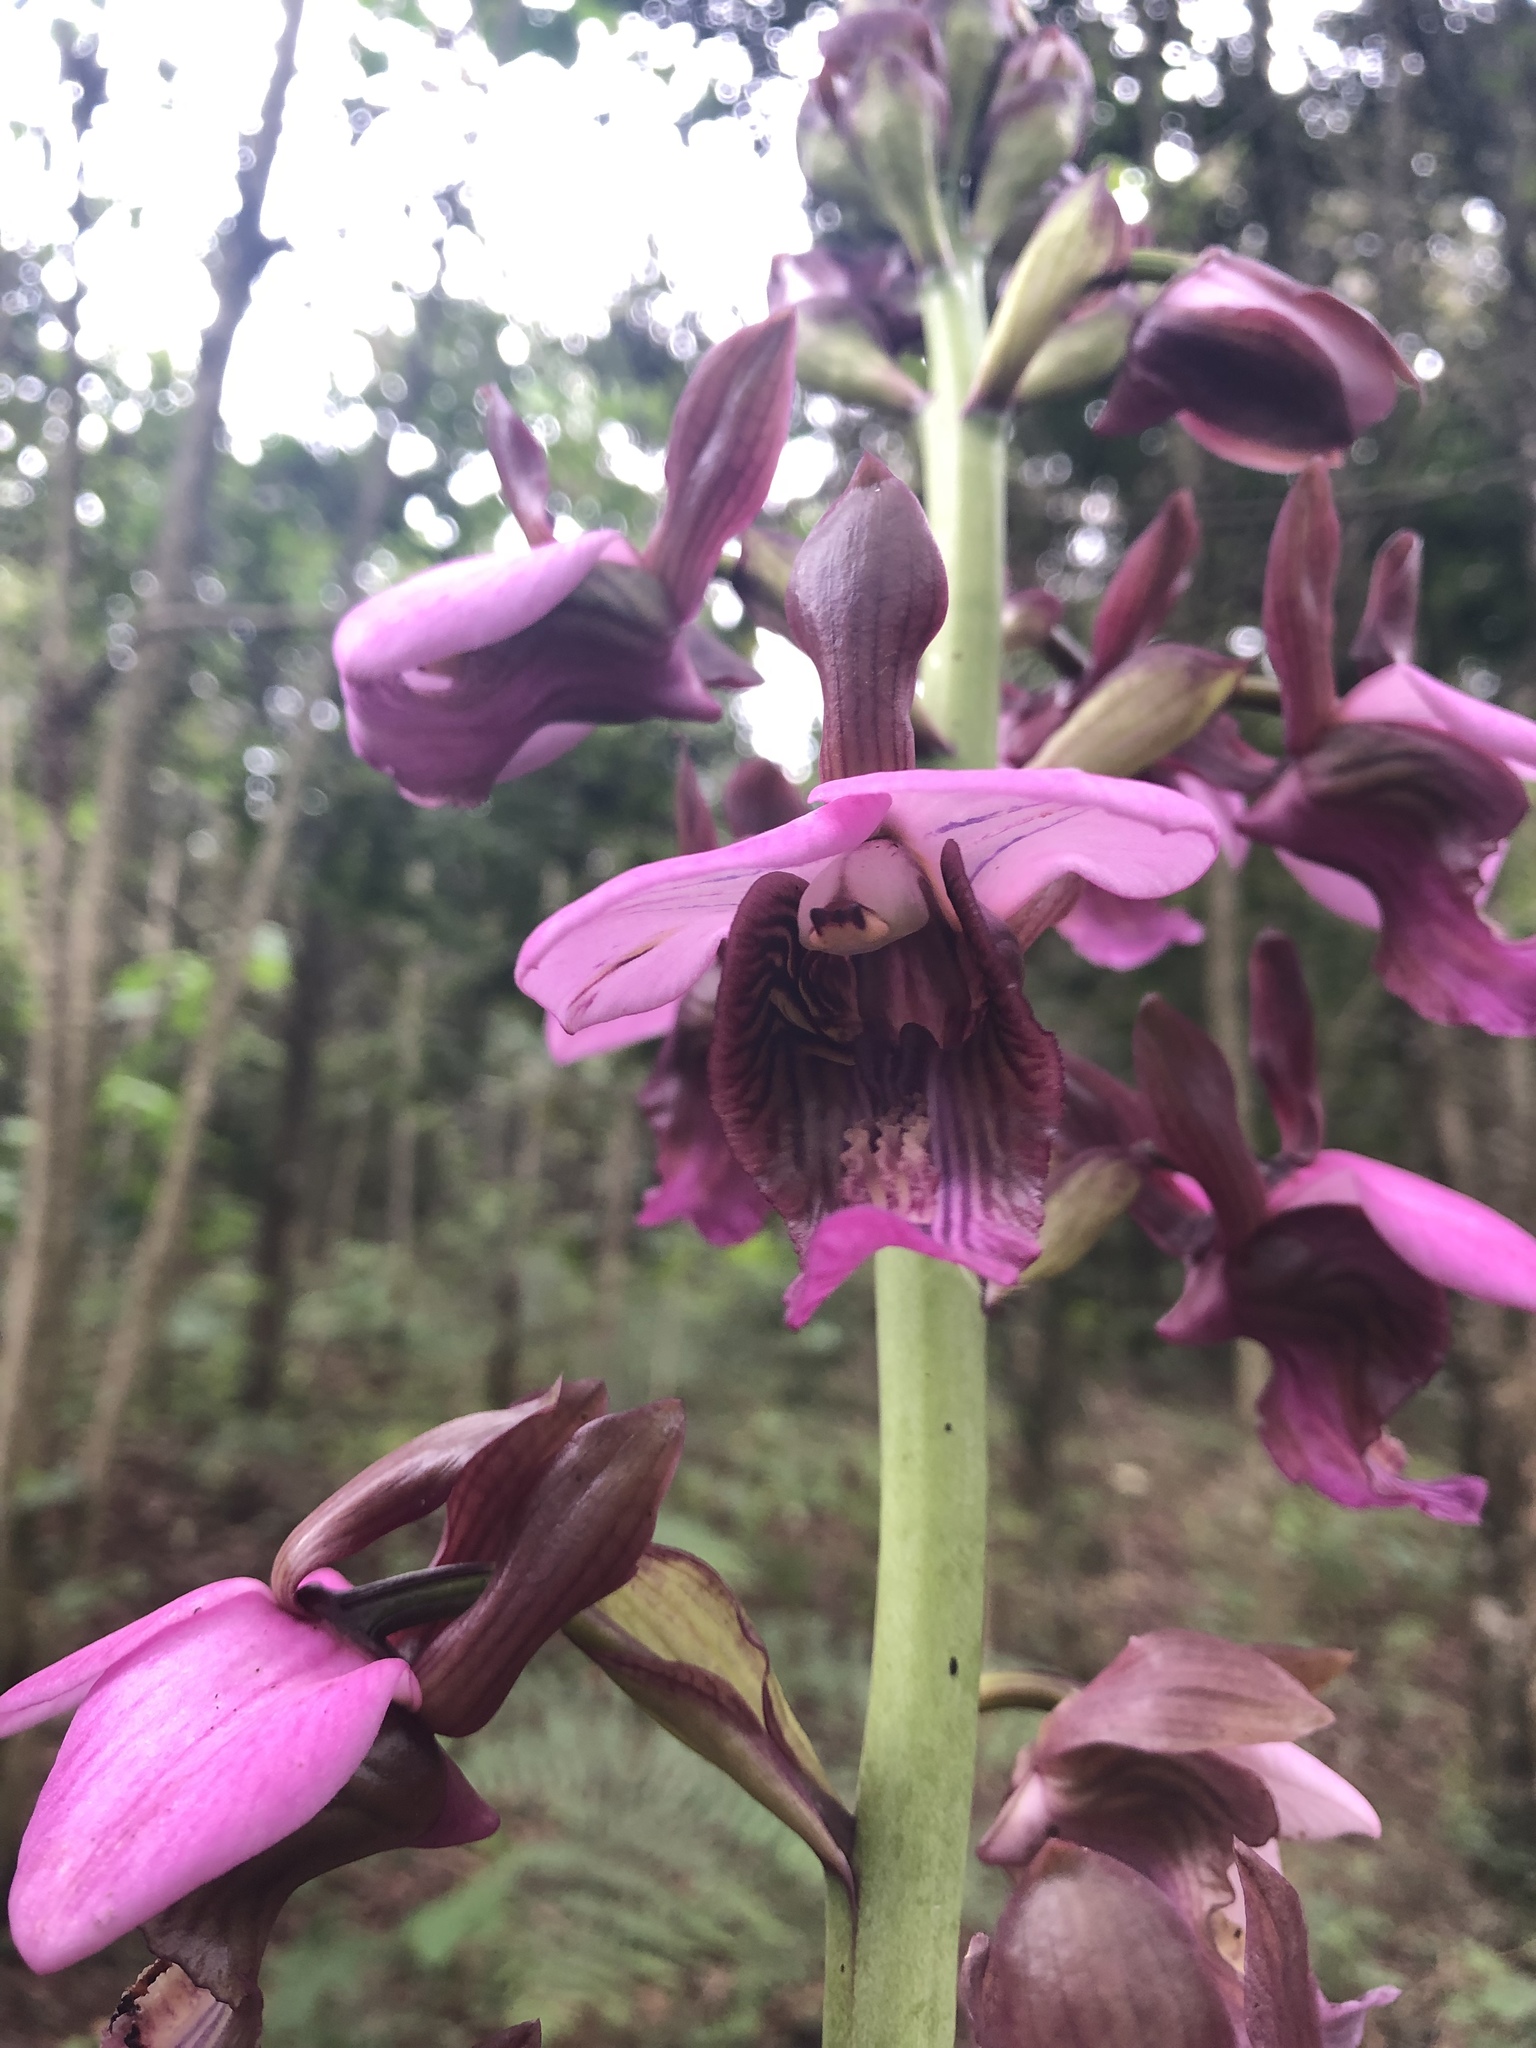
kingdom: Plantae
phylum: Tracheophyta
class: Liliopsida
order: Asparagales
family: Orchidaceae
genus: Eulophia
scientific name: Eulophia horsfallii
